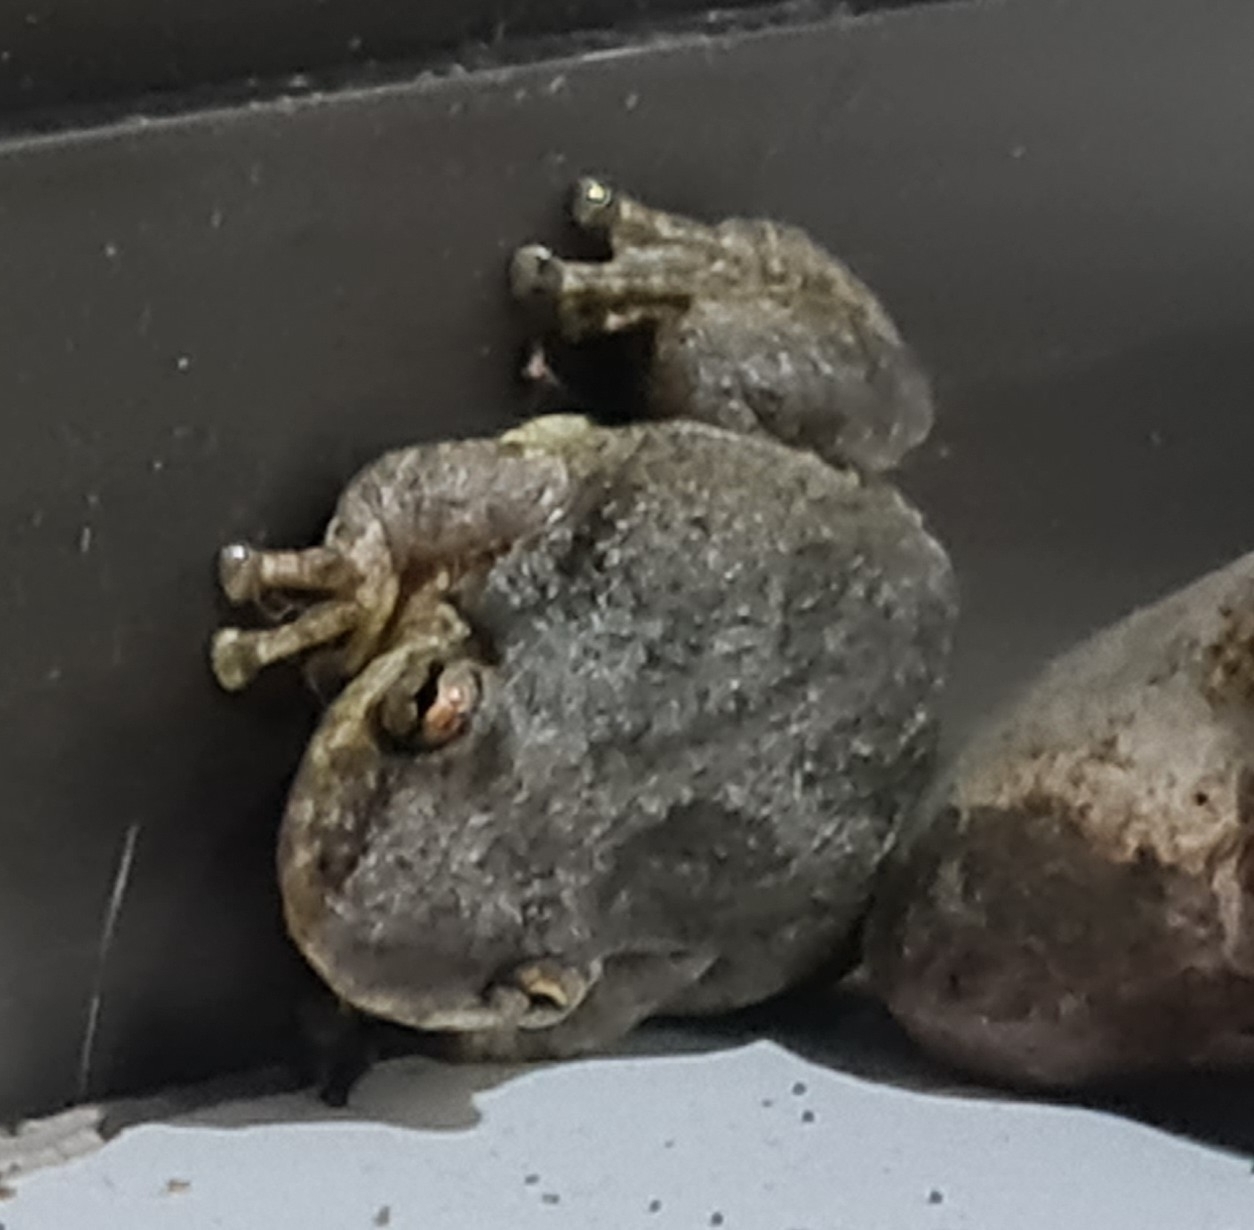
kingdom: Animalia
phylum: Chordata
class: Amphibia
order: Anura
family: Hylidae
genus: Scinax
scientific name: Scinax x-signatus
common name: Venezuela snouted treefrog
